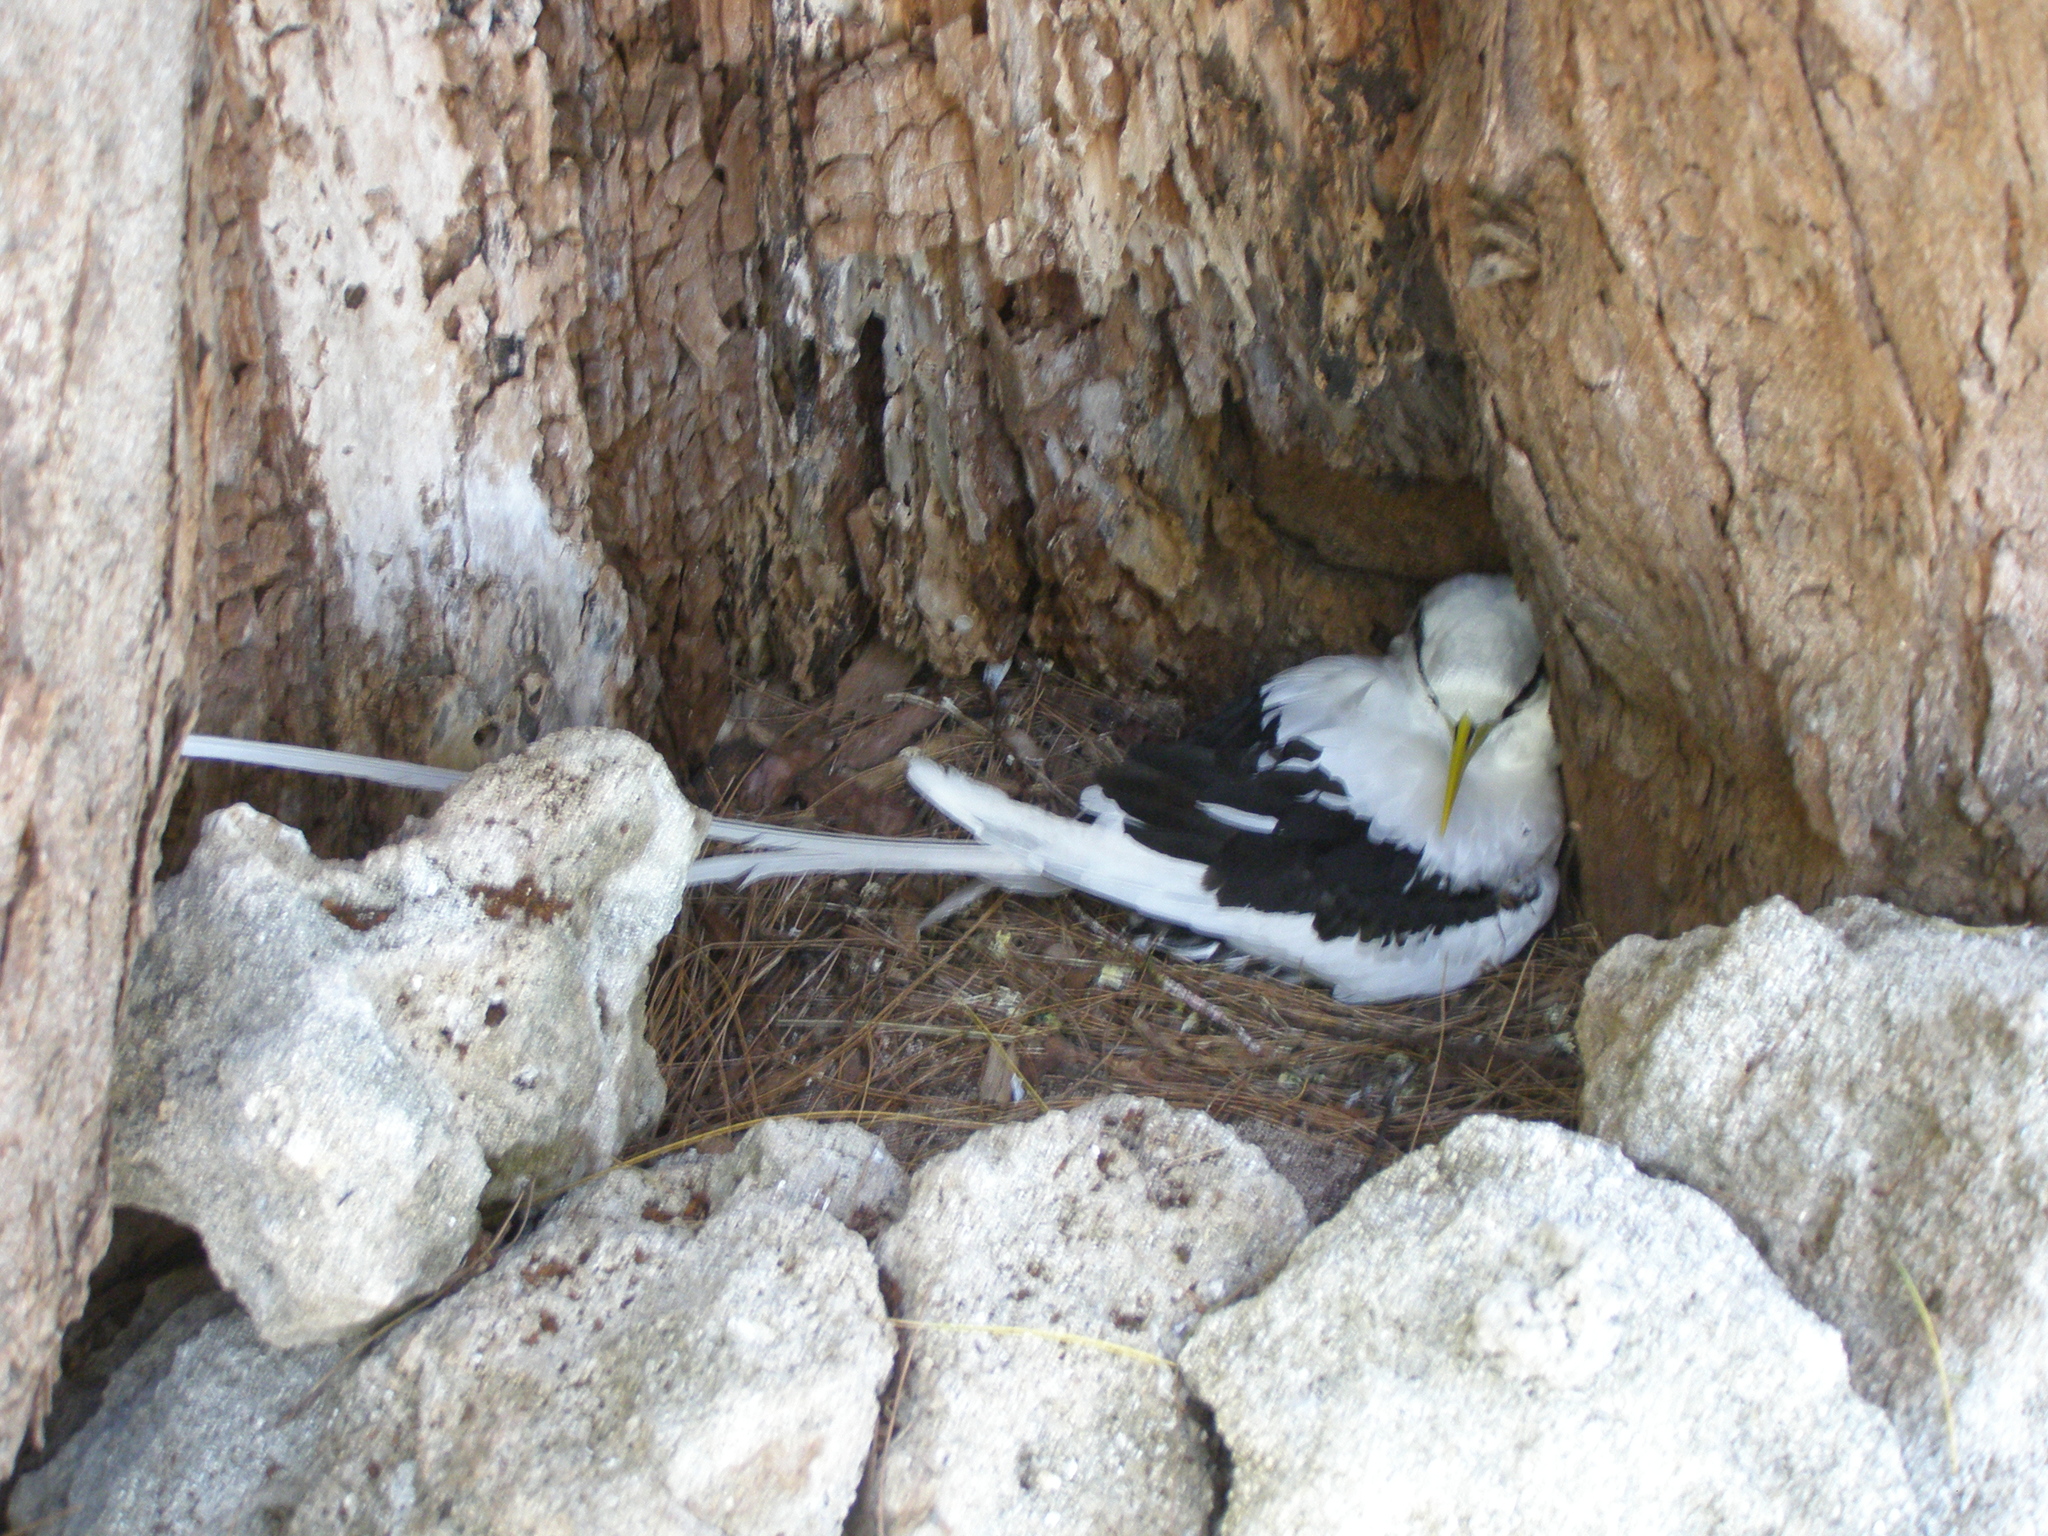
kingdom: Animalia
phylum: Chordata
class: Aves
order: Phaethontiformes
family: Phaethontidae
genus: Phaethon
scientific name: Phaethon lepturus
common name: White-tailed tropicbird
